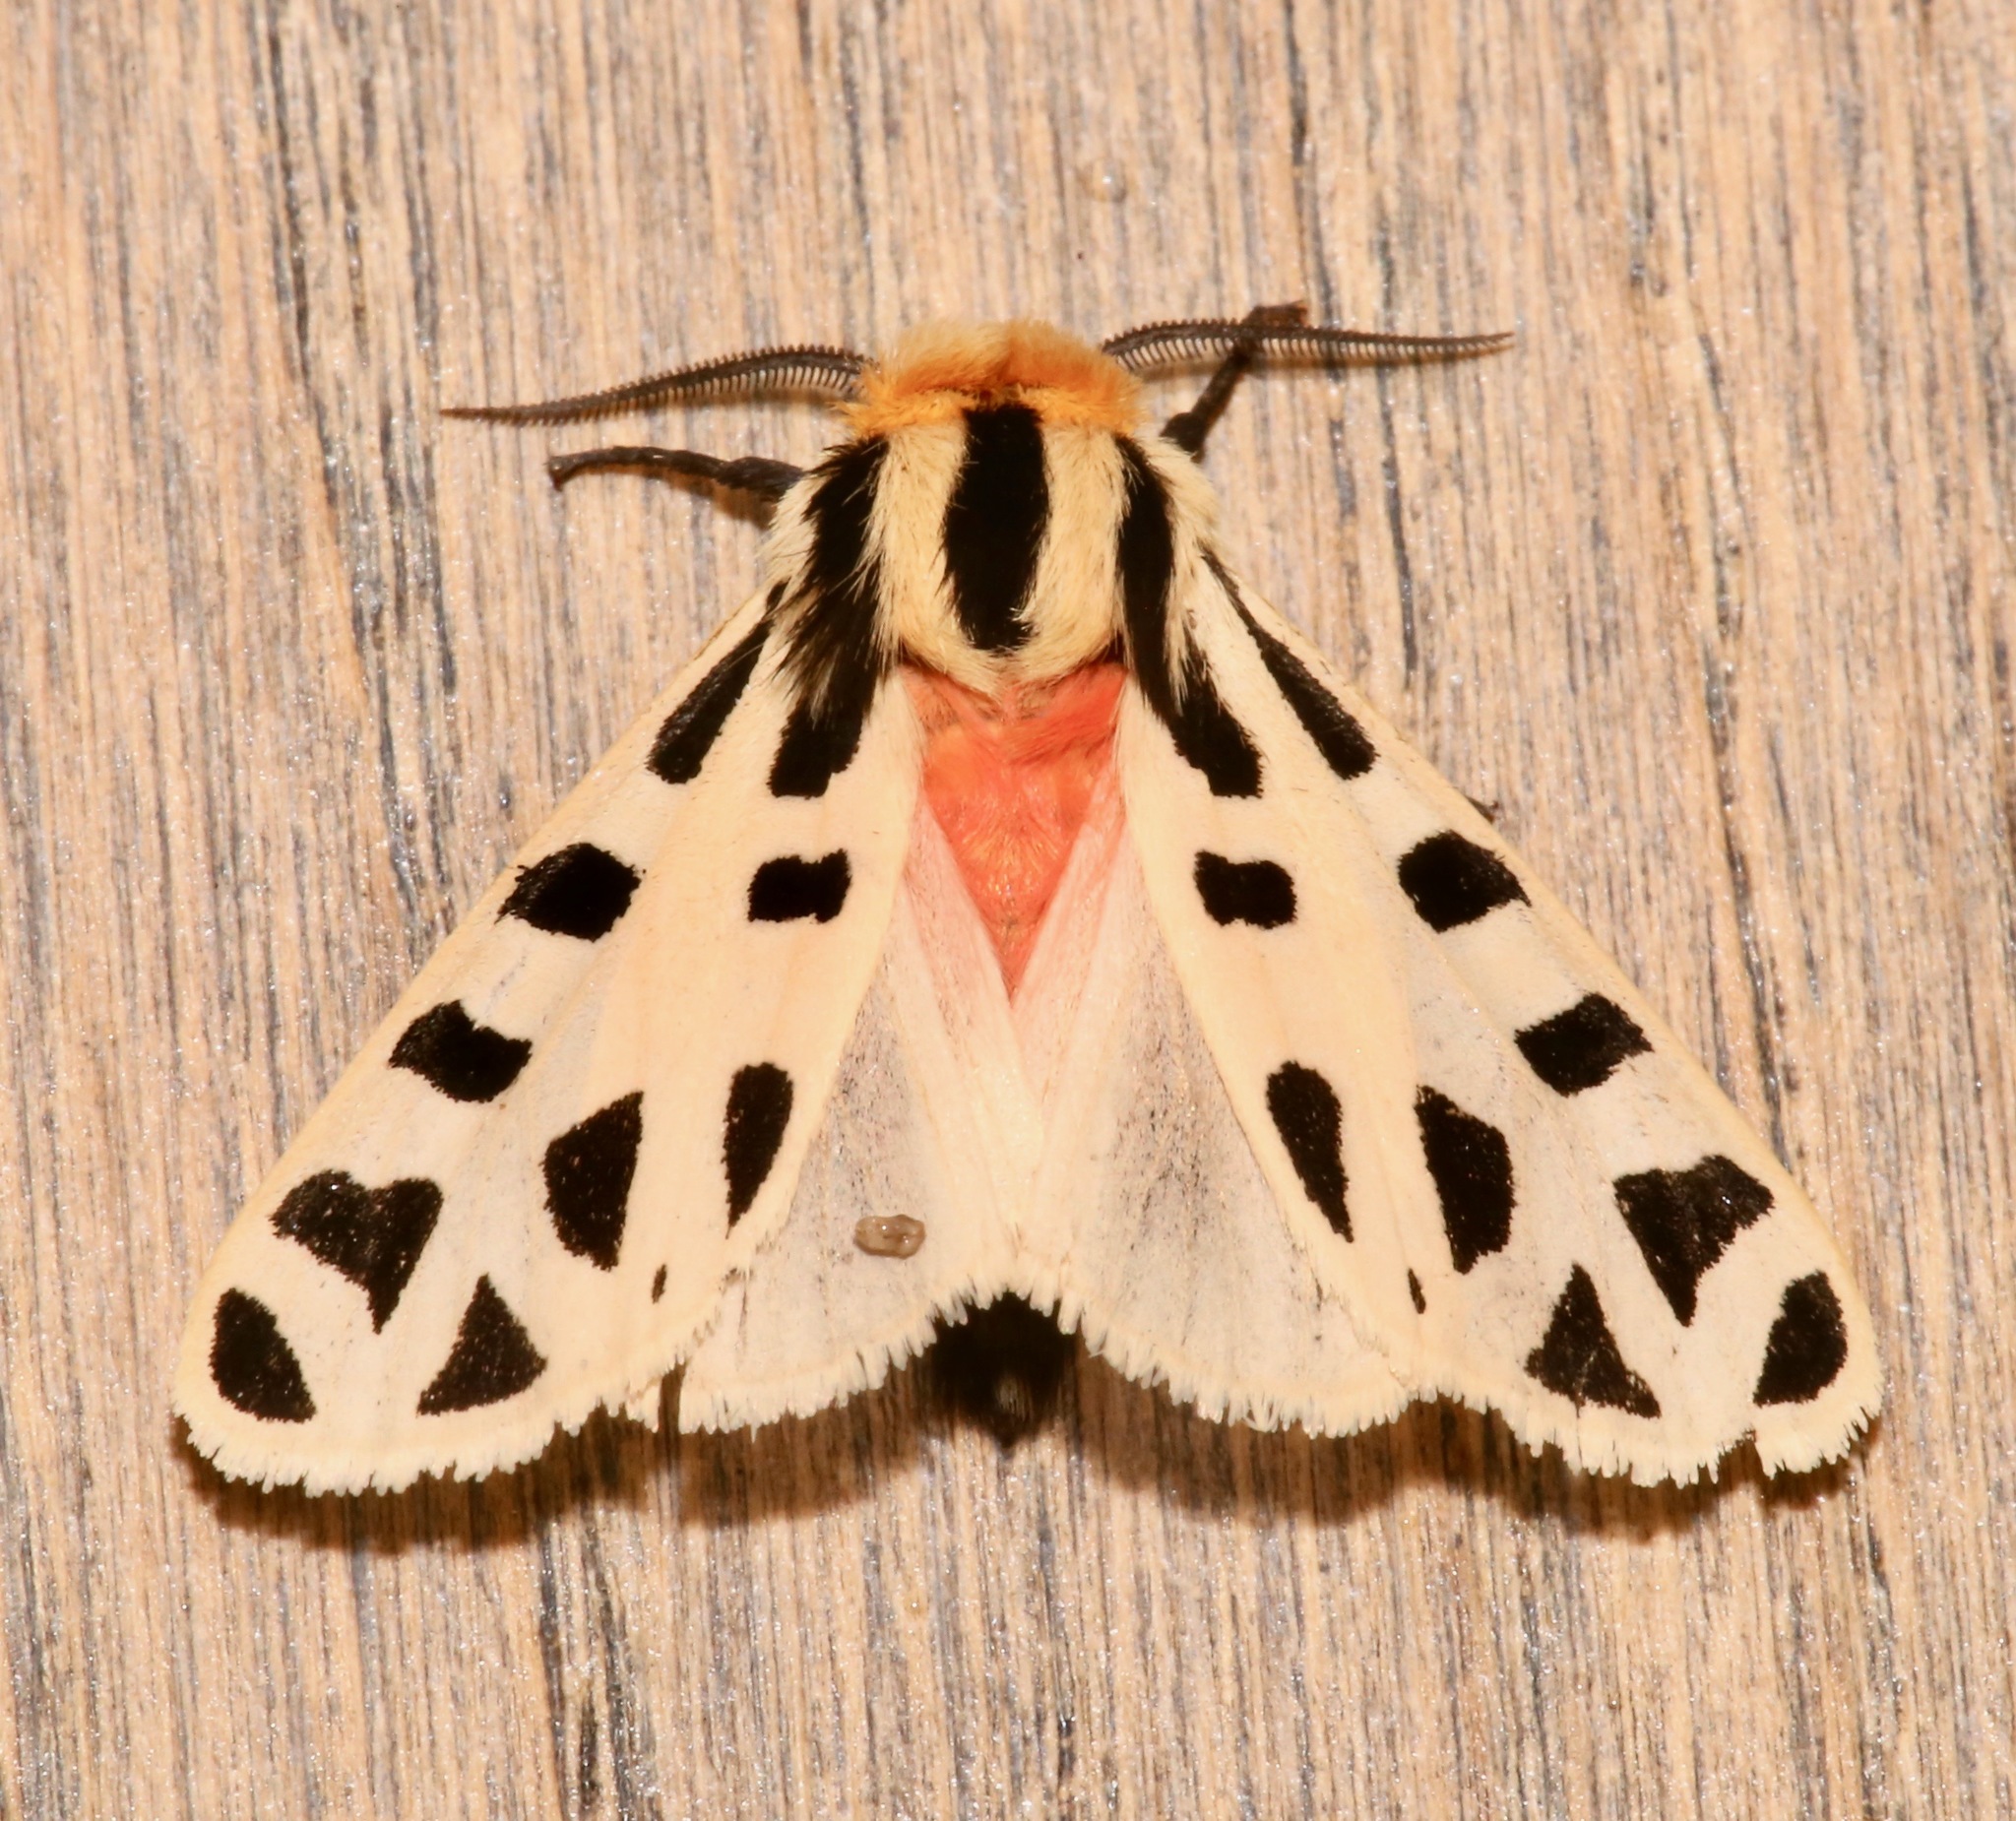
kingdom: Animalia
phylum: Arthropoda
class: Insecta
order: Lepidoptera
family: Erebidae
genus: Apantesis
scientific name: Apantesis
